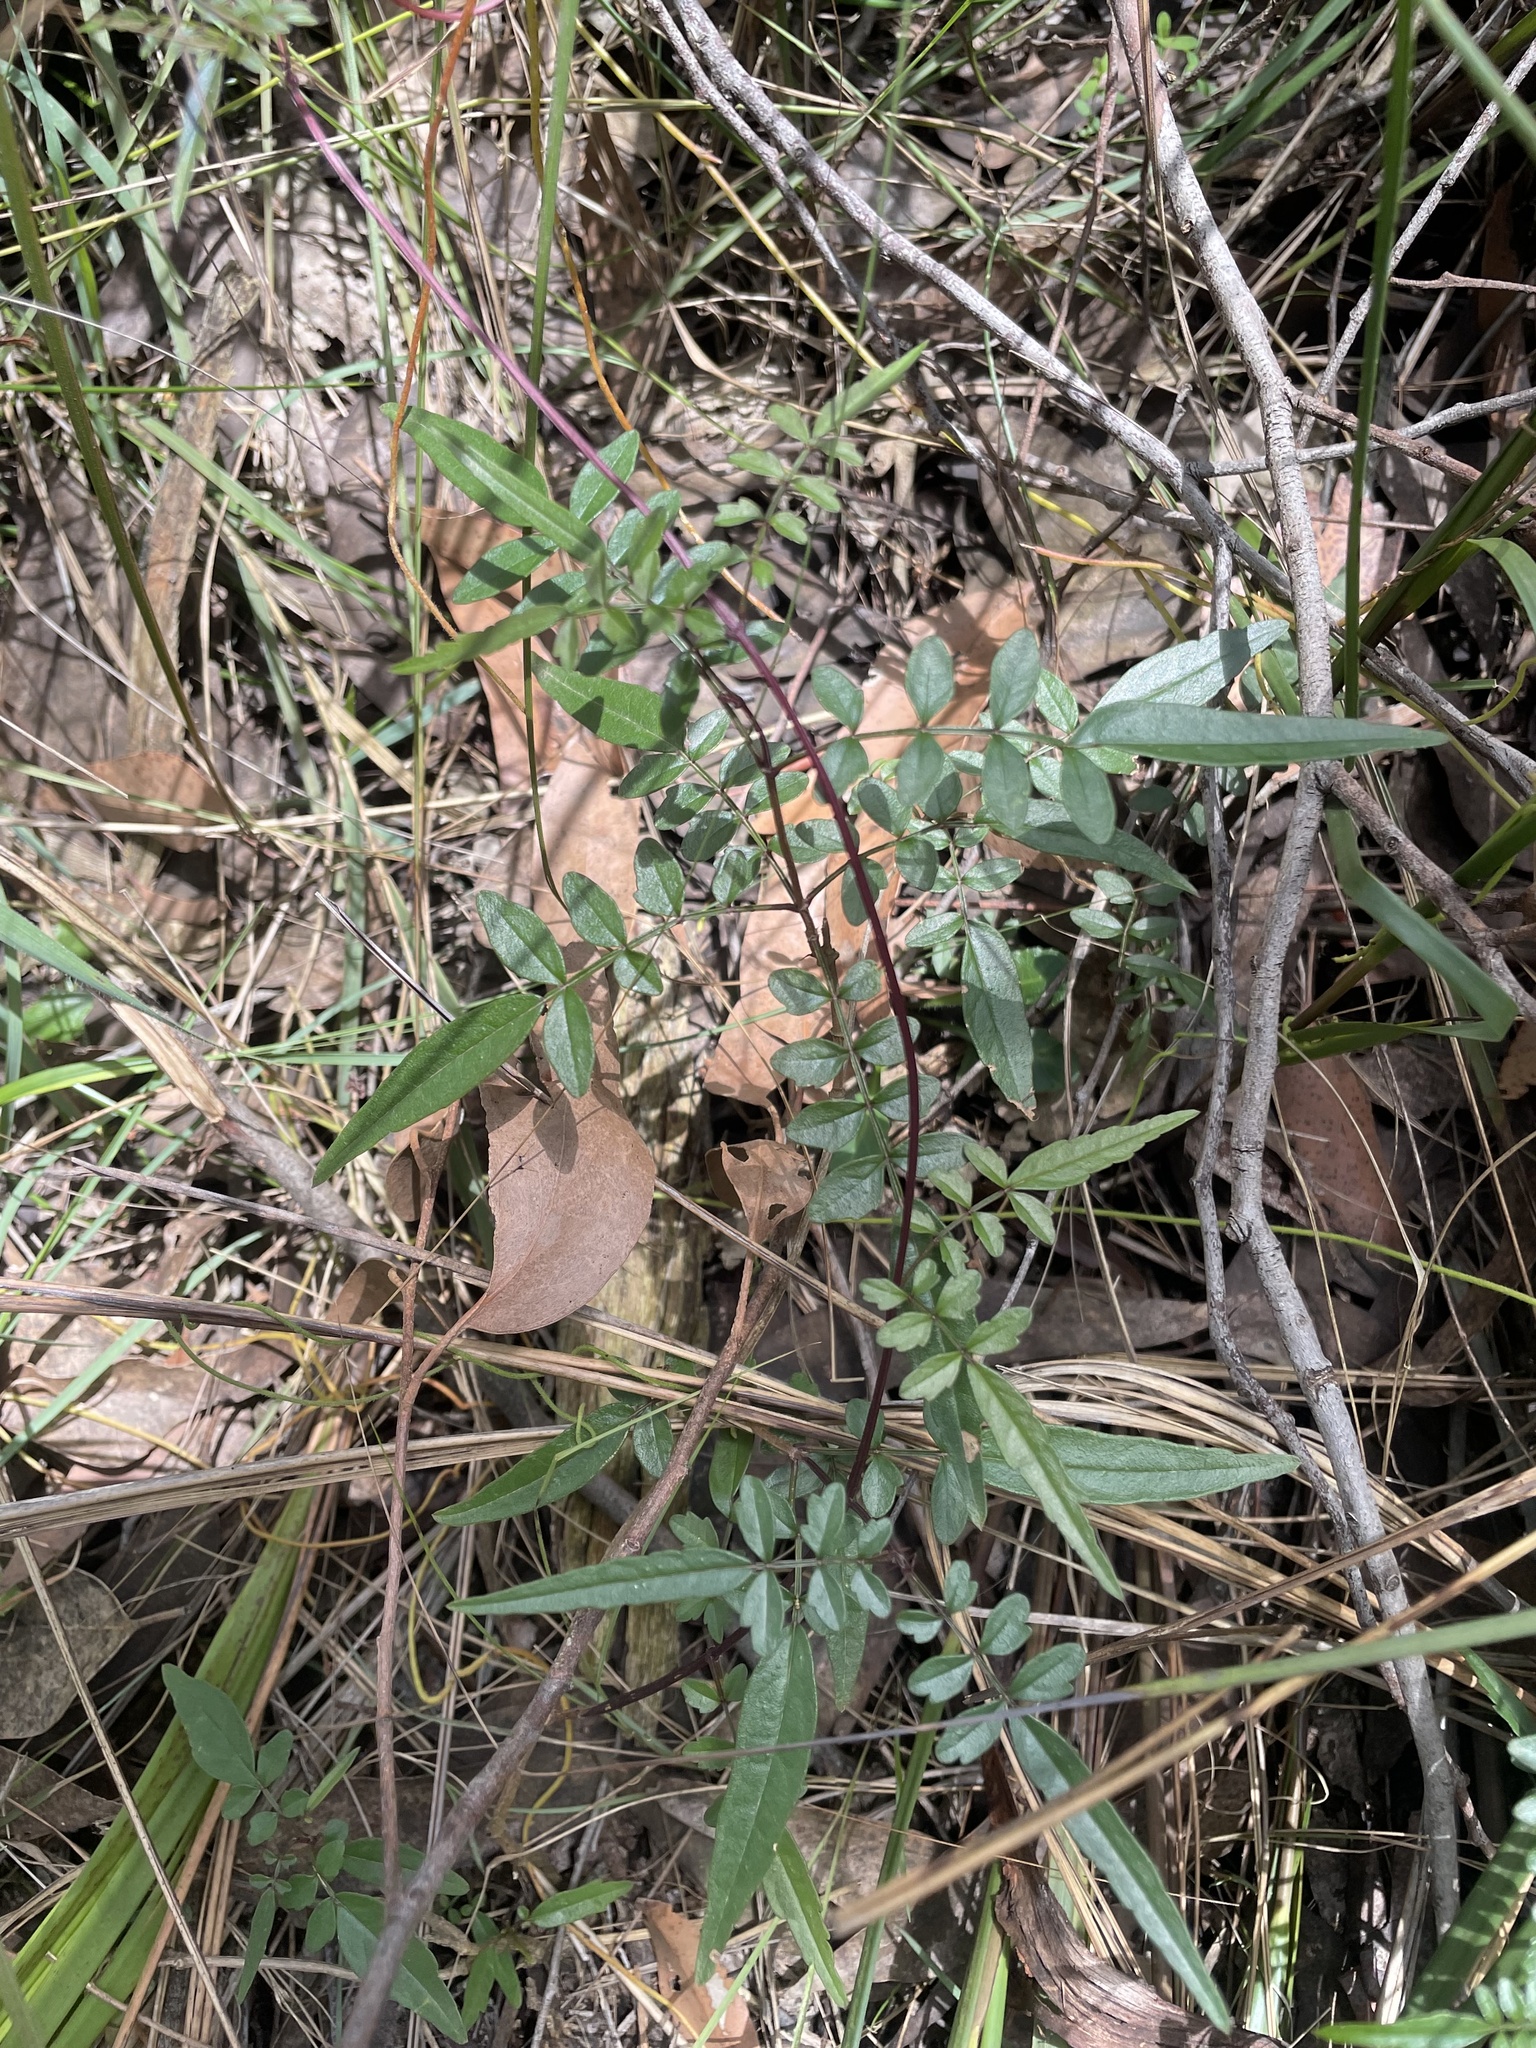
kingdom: Plantae
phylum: Tracheophyta
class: Magnoliopsida
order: Lamiales
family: Bignoniaceae
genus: Pandorea
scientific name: Pandorea pandorana
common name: Wonga-wonga-vine
